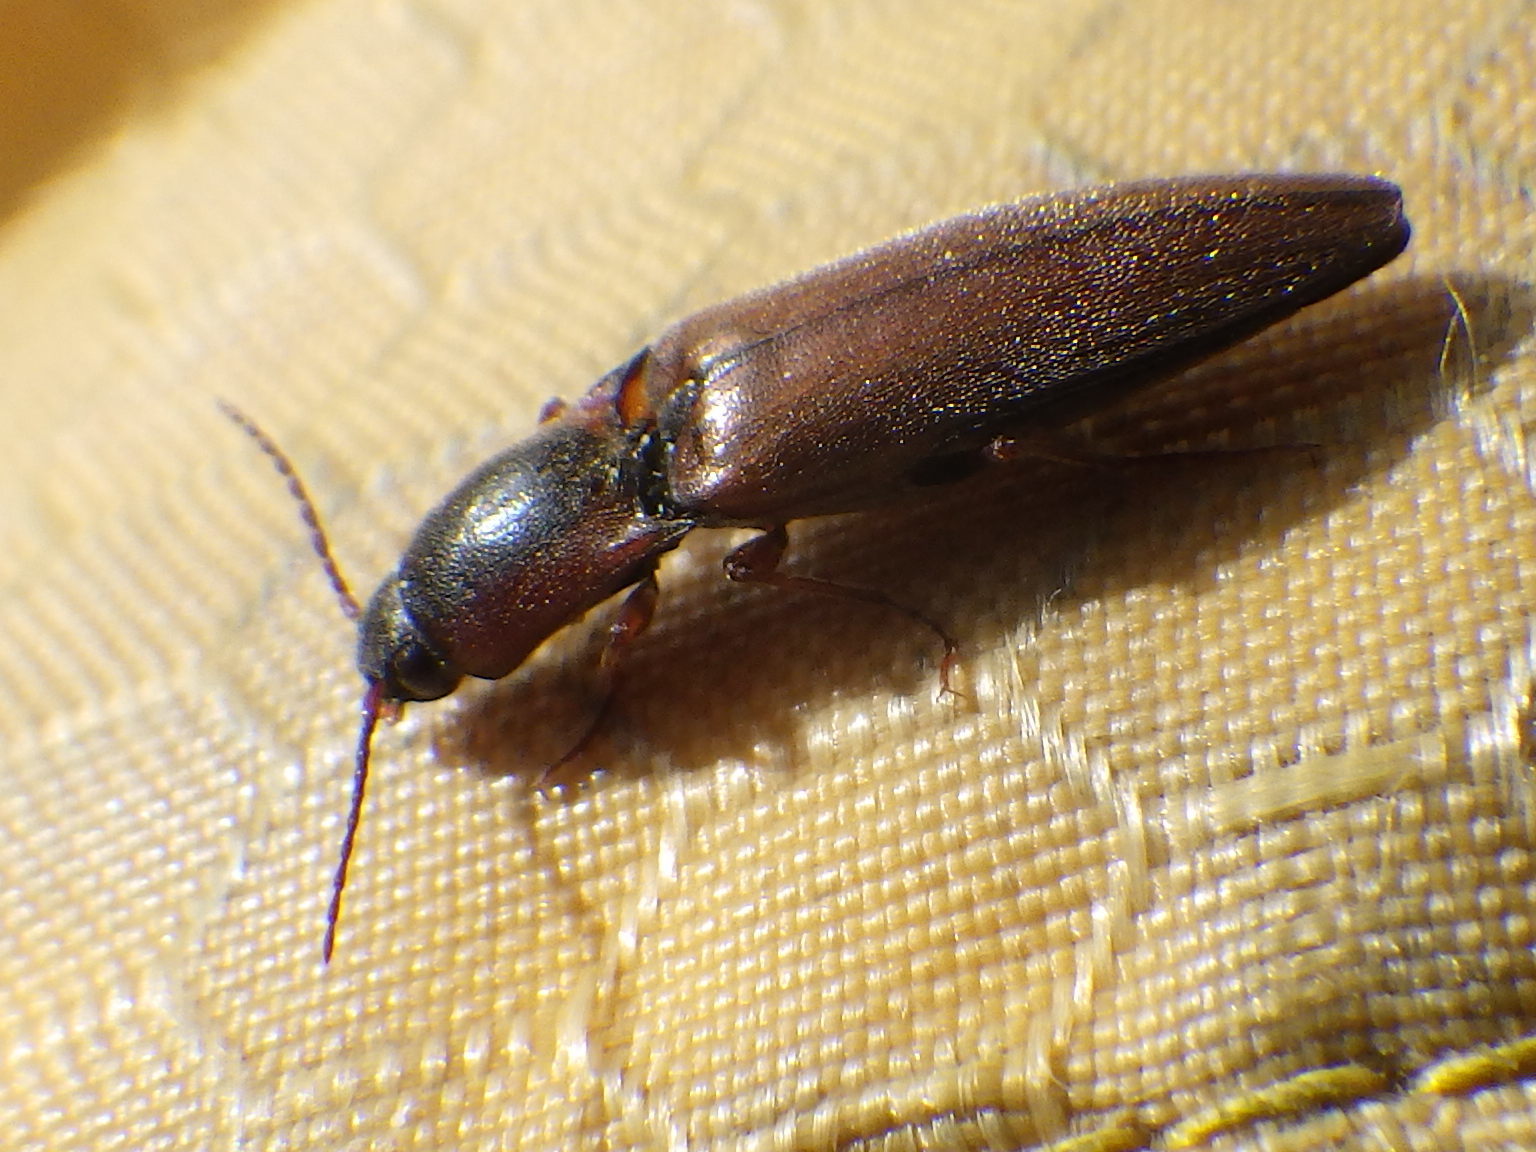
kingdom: Animalia
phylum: Arthropoda
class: Insecta
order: Coleoptera
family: Elateridae
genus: Agriotes
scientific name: Agriotes collaris
